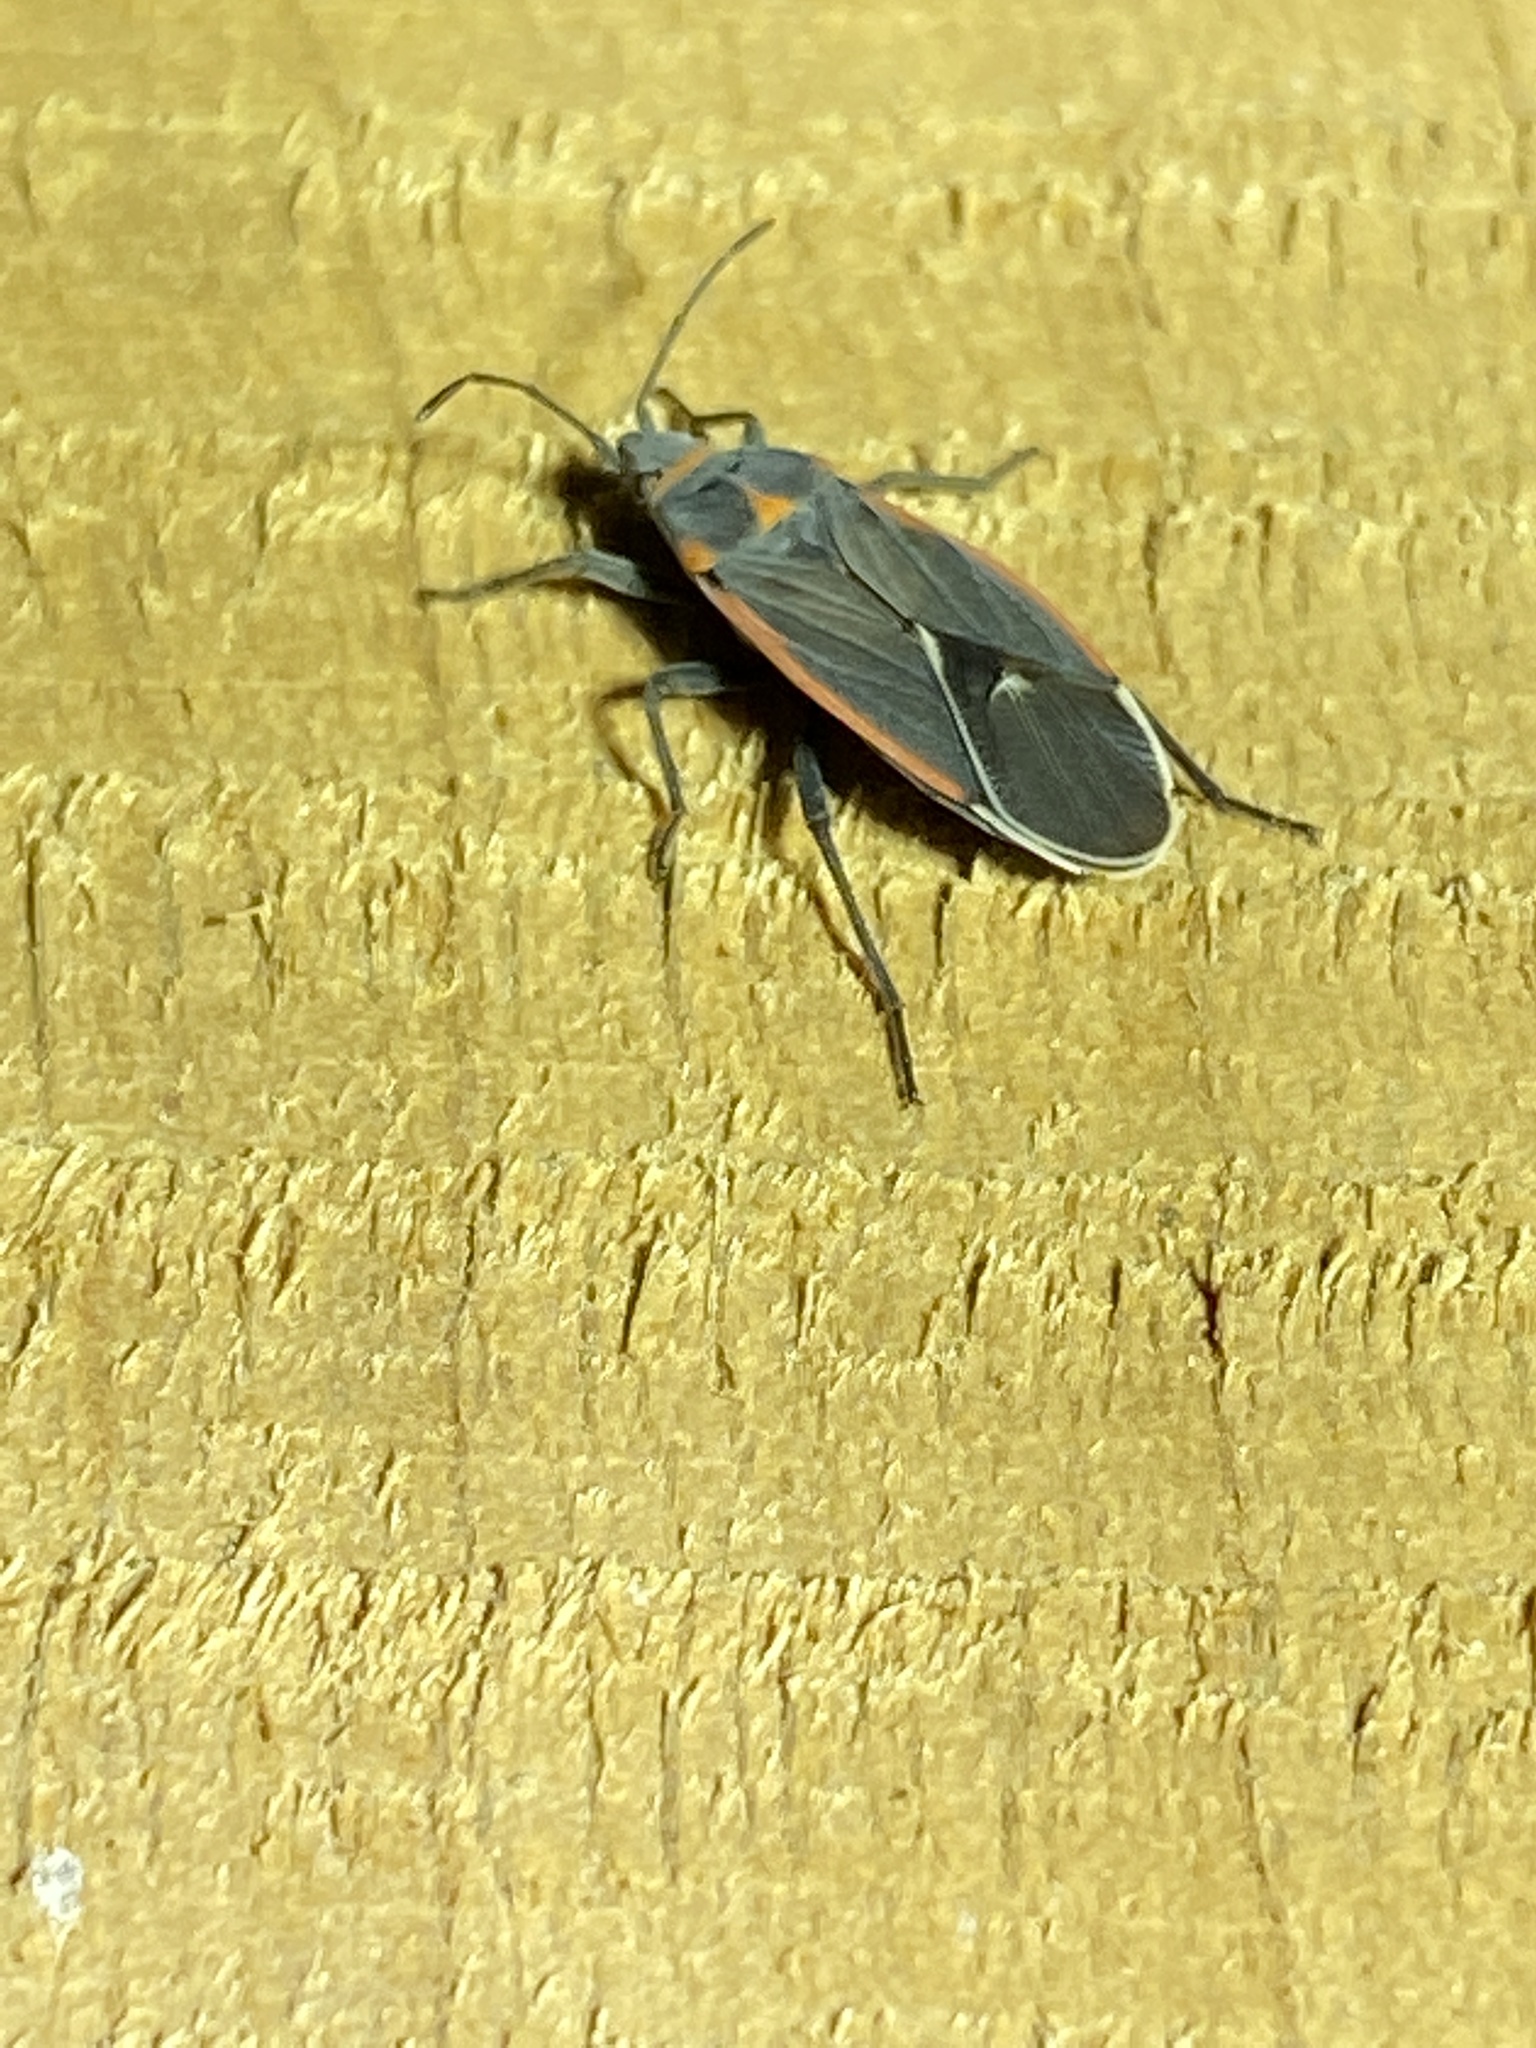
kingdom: Animalia
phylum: Arthropoda
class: Insecta
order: Hemiptera
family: Lygaeidae
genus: Melacoryphus
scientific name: Melacoryphus lateralis
